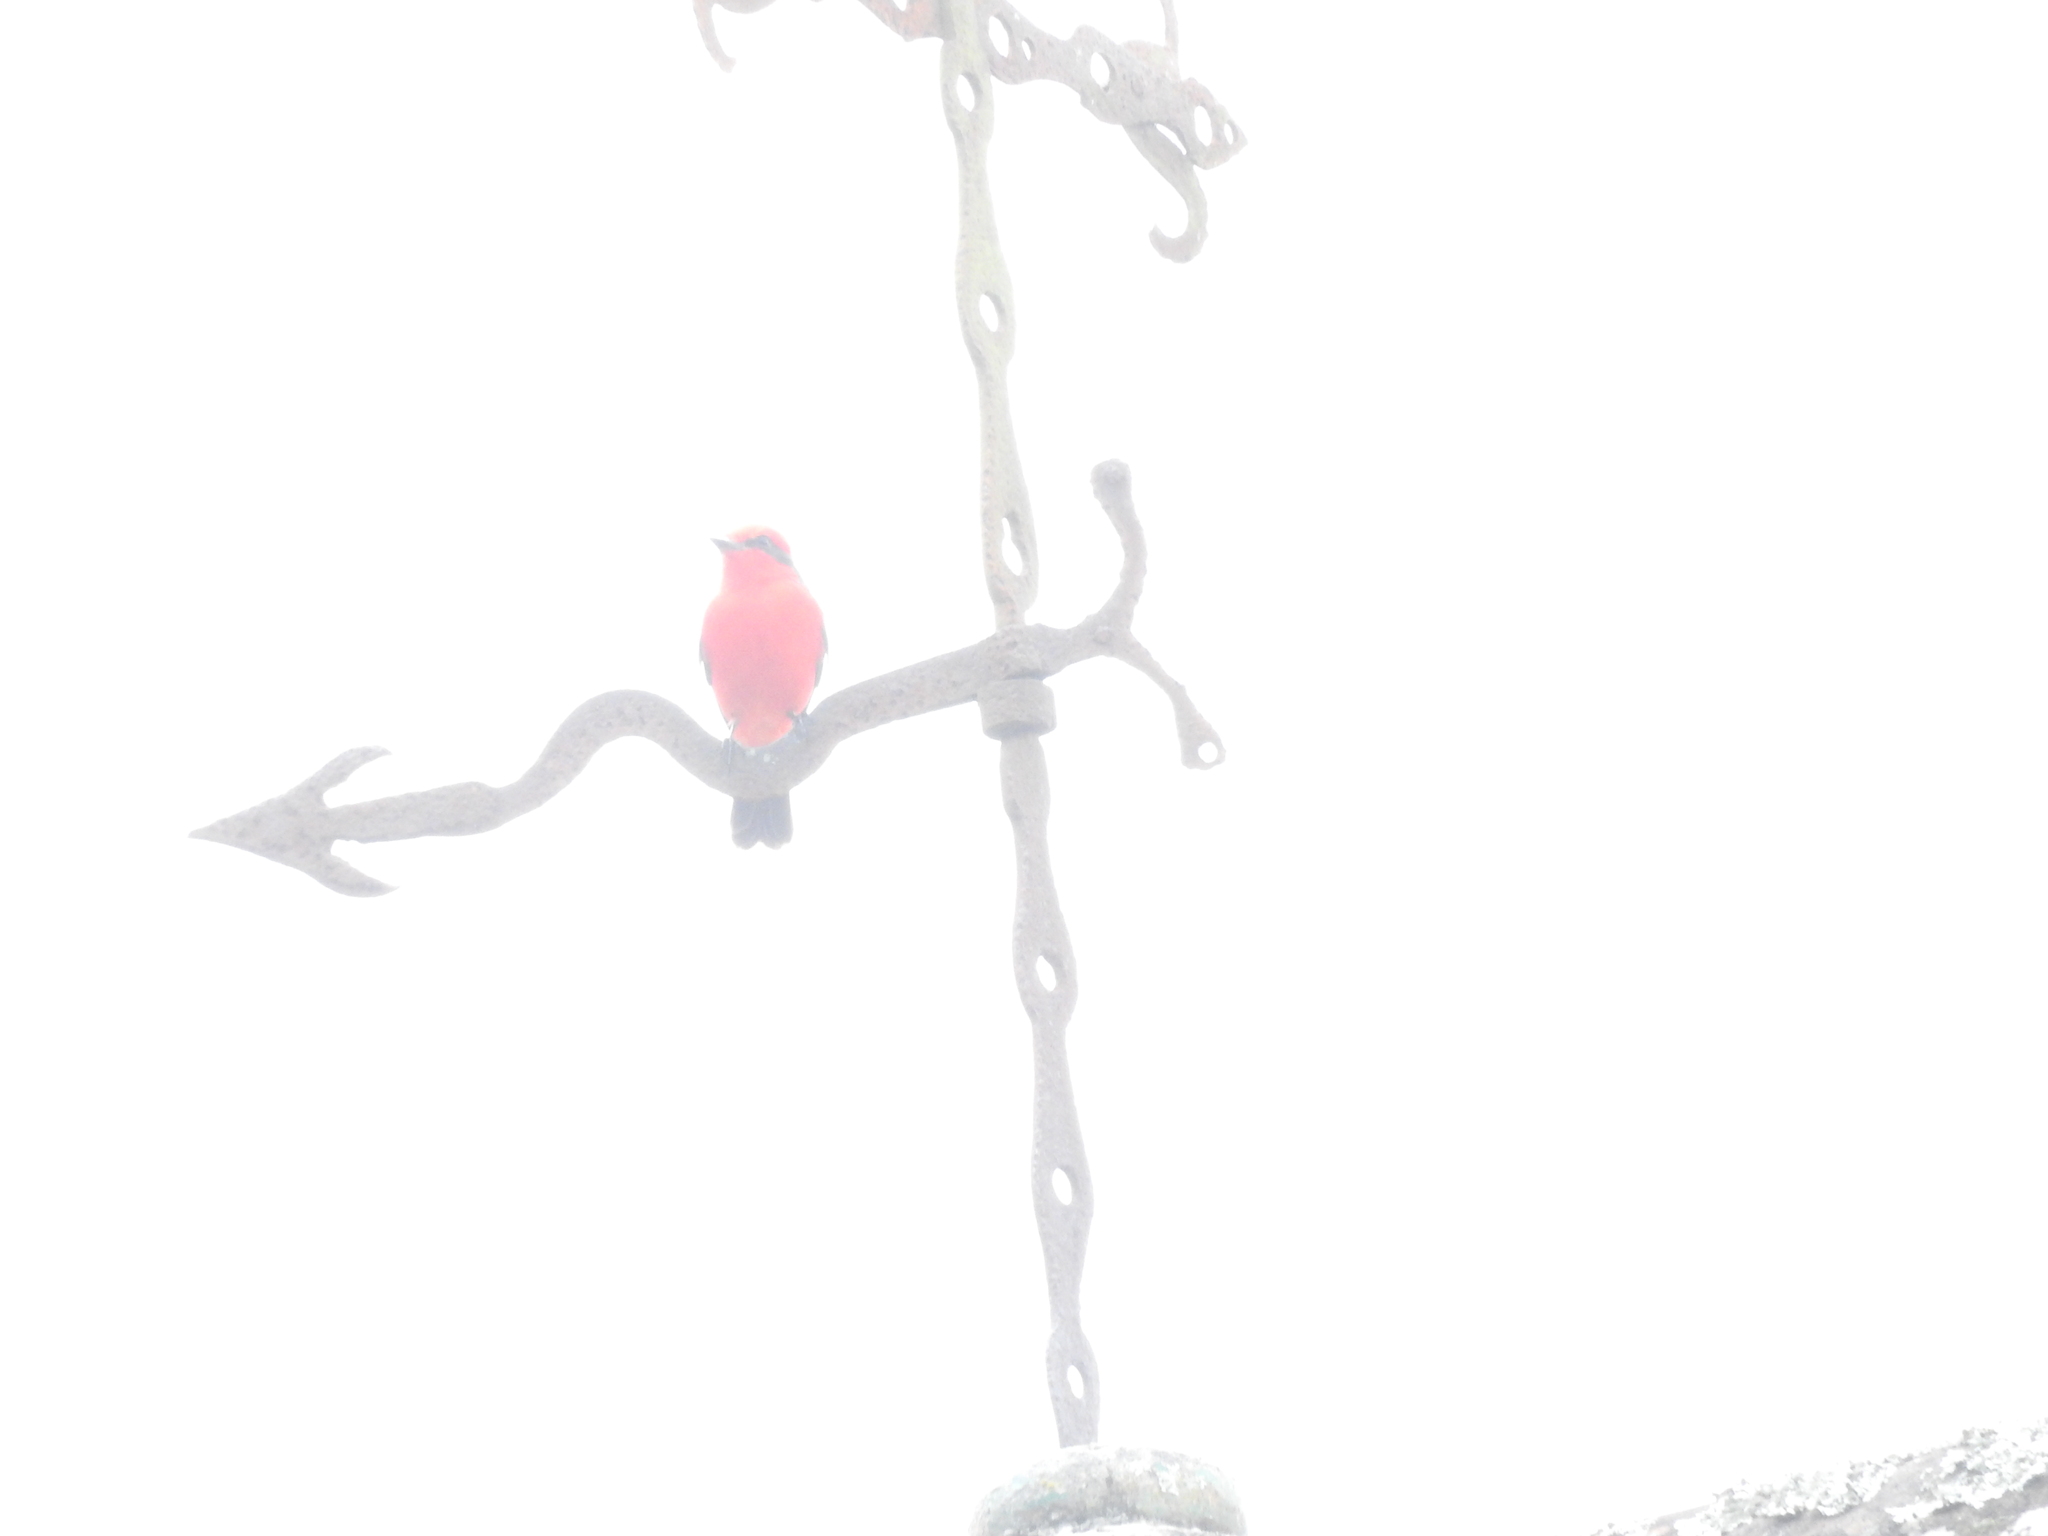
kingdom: Animalia
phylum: Chordata
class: Aves
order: Passeriformes
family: Tyrannidae
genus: Pyrocephalus
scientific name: Pyrocephalus rubinus
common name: Vermilion flycatcher
